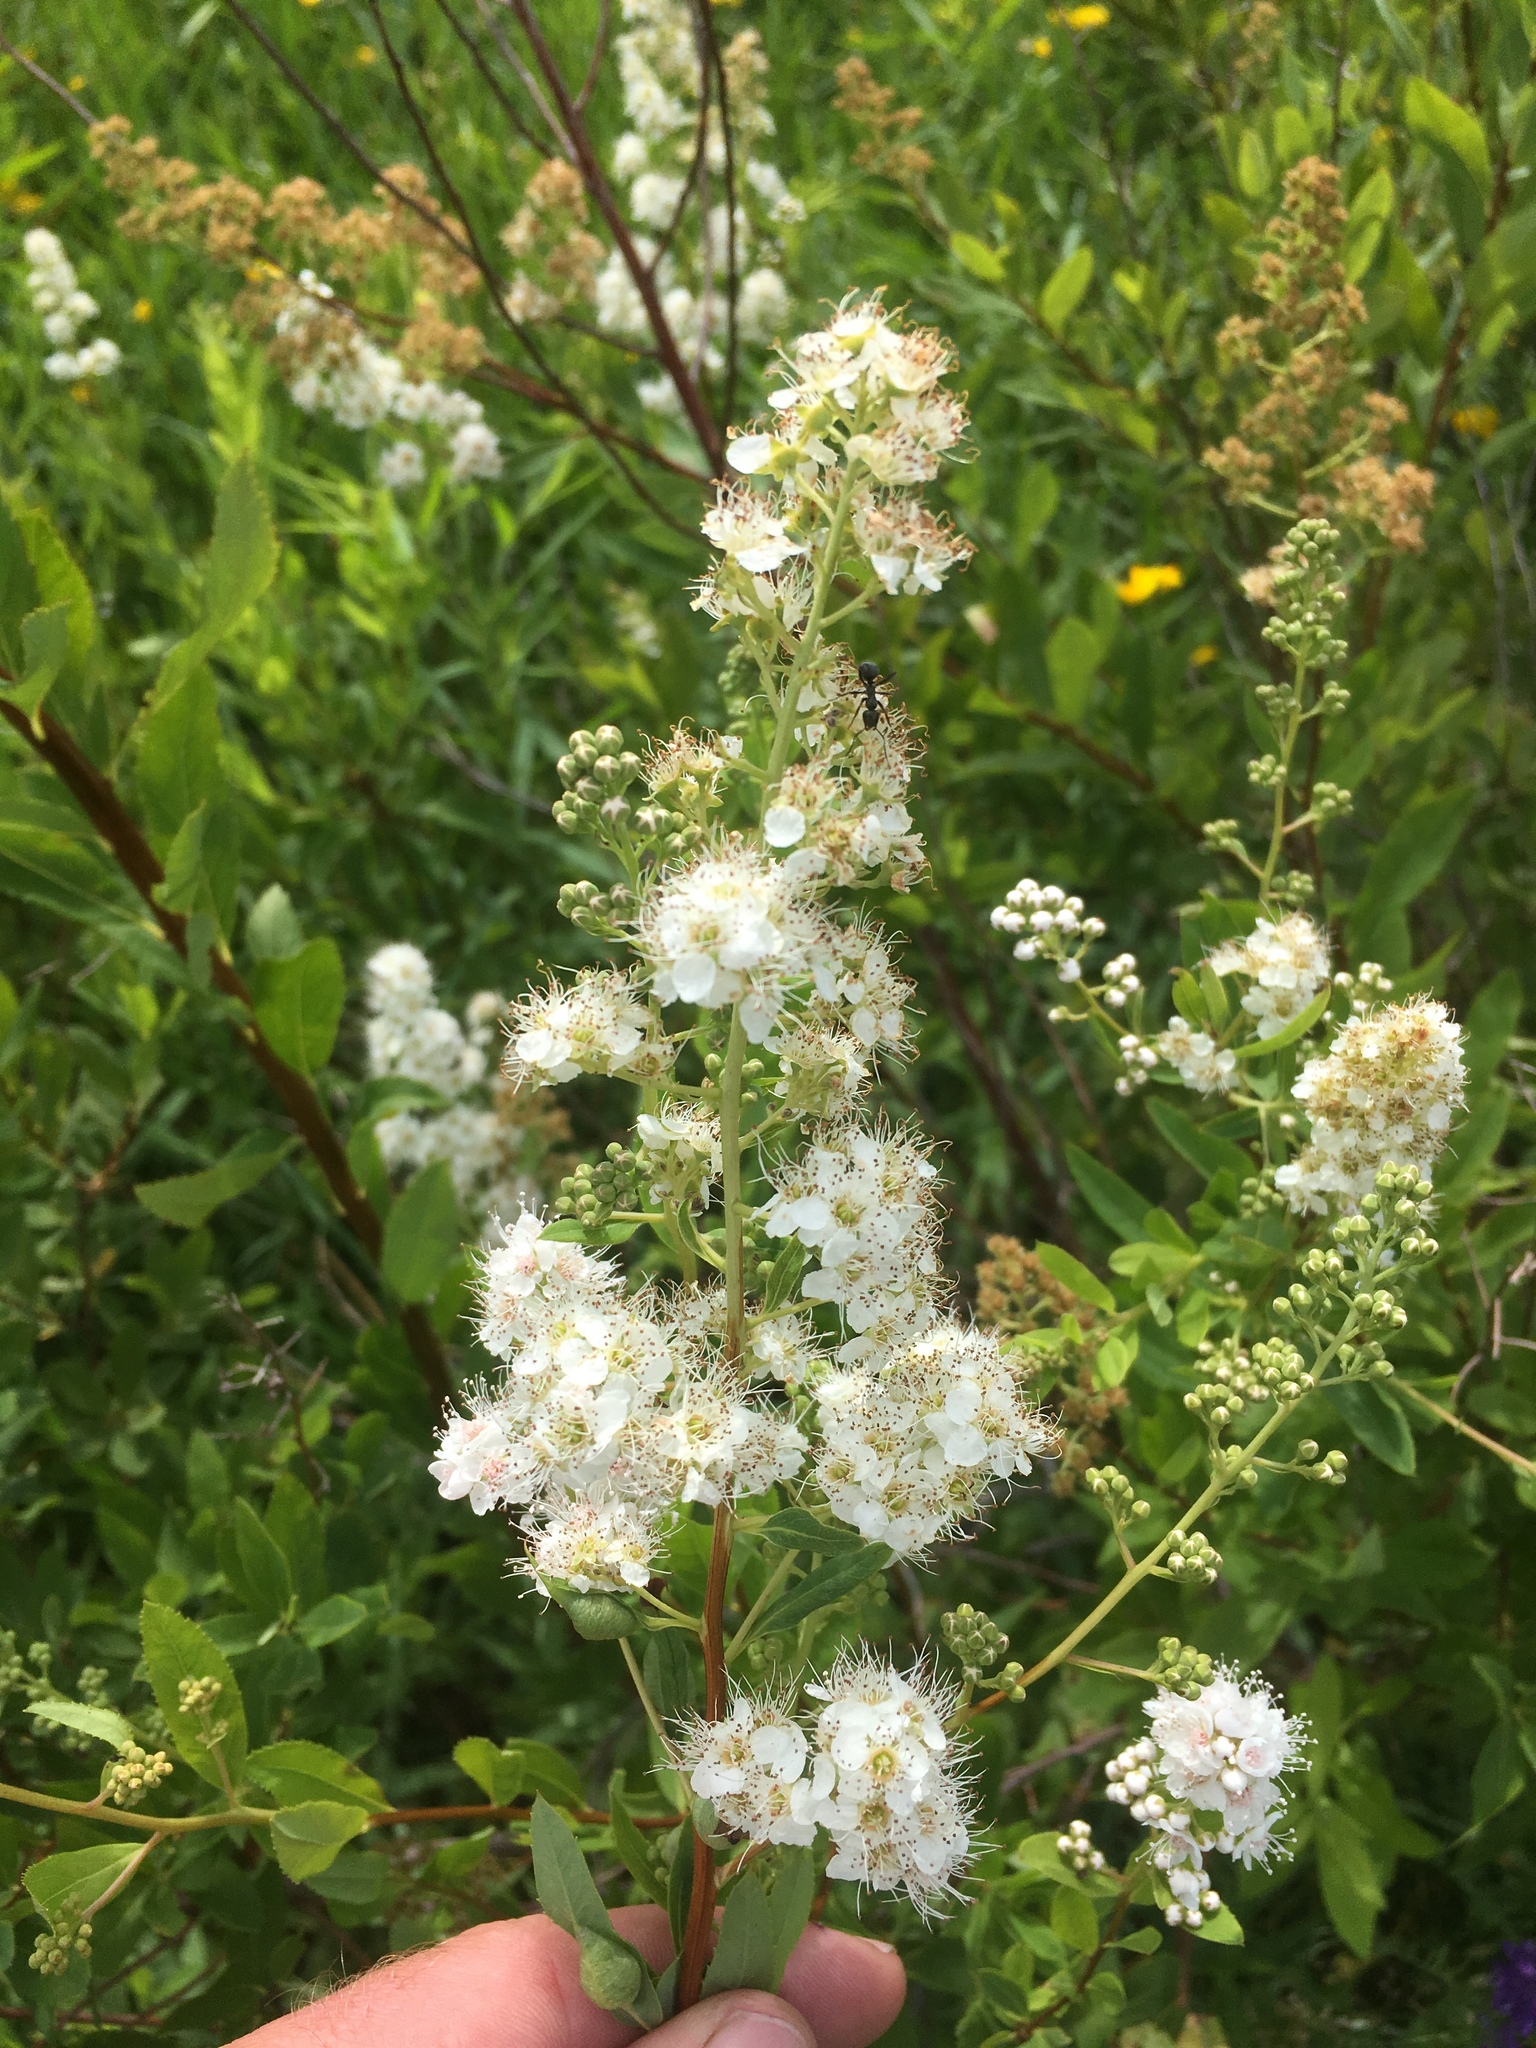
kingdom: Plantae
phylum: Tracheophyta
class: Magnoliopsida
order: Rosales
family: Rosaceae
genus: Spiraea
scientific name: Spiraea alba
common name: Pale bridewort
